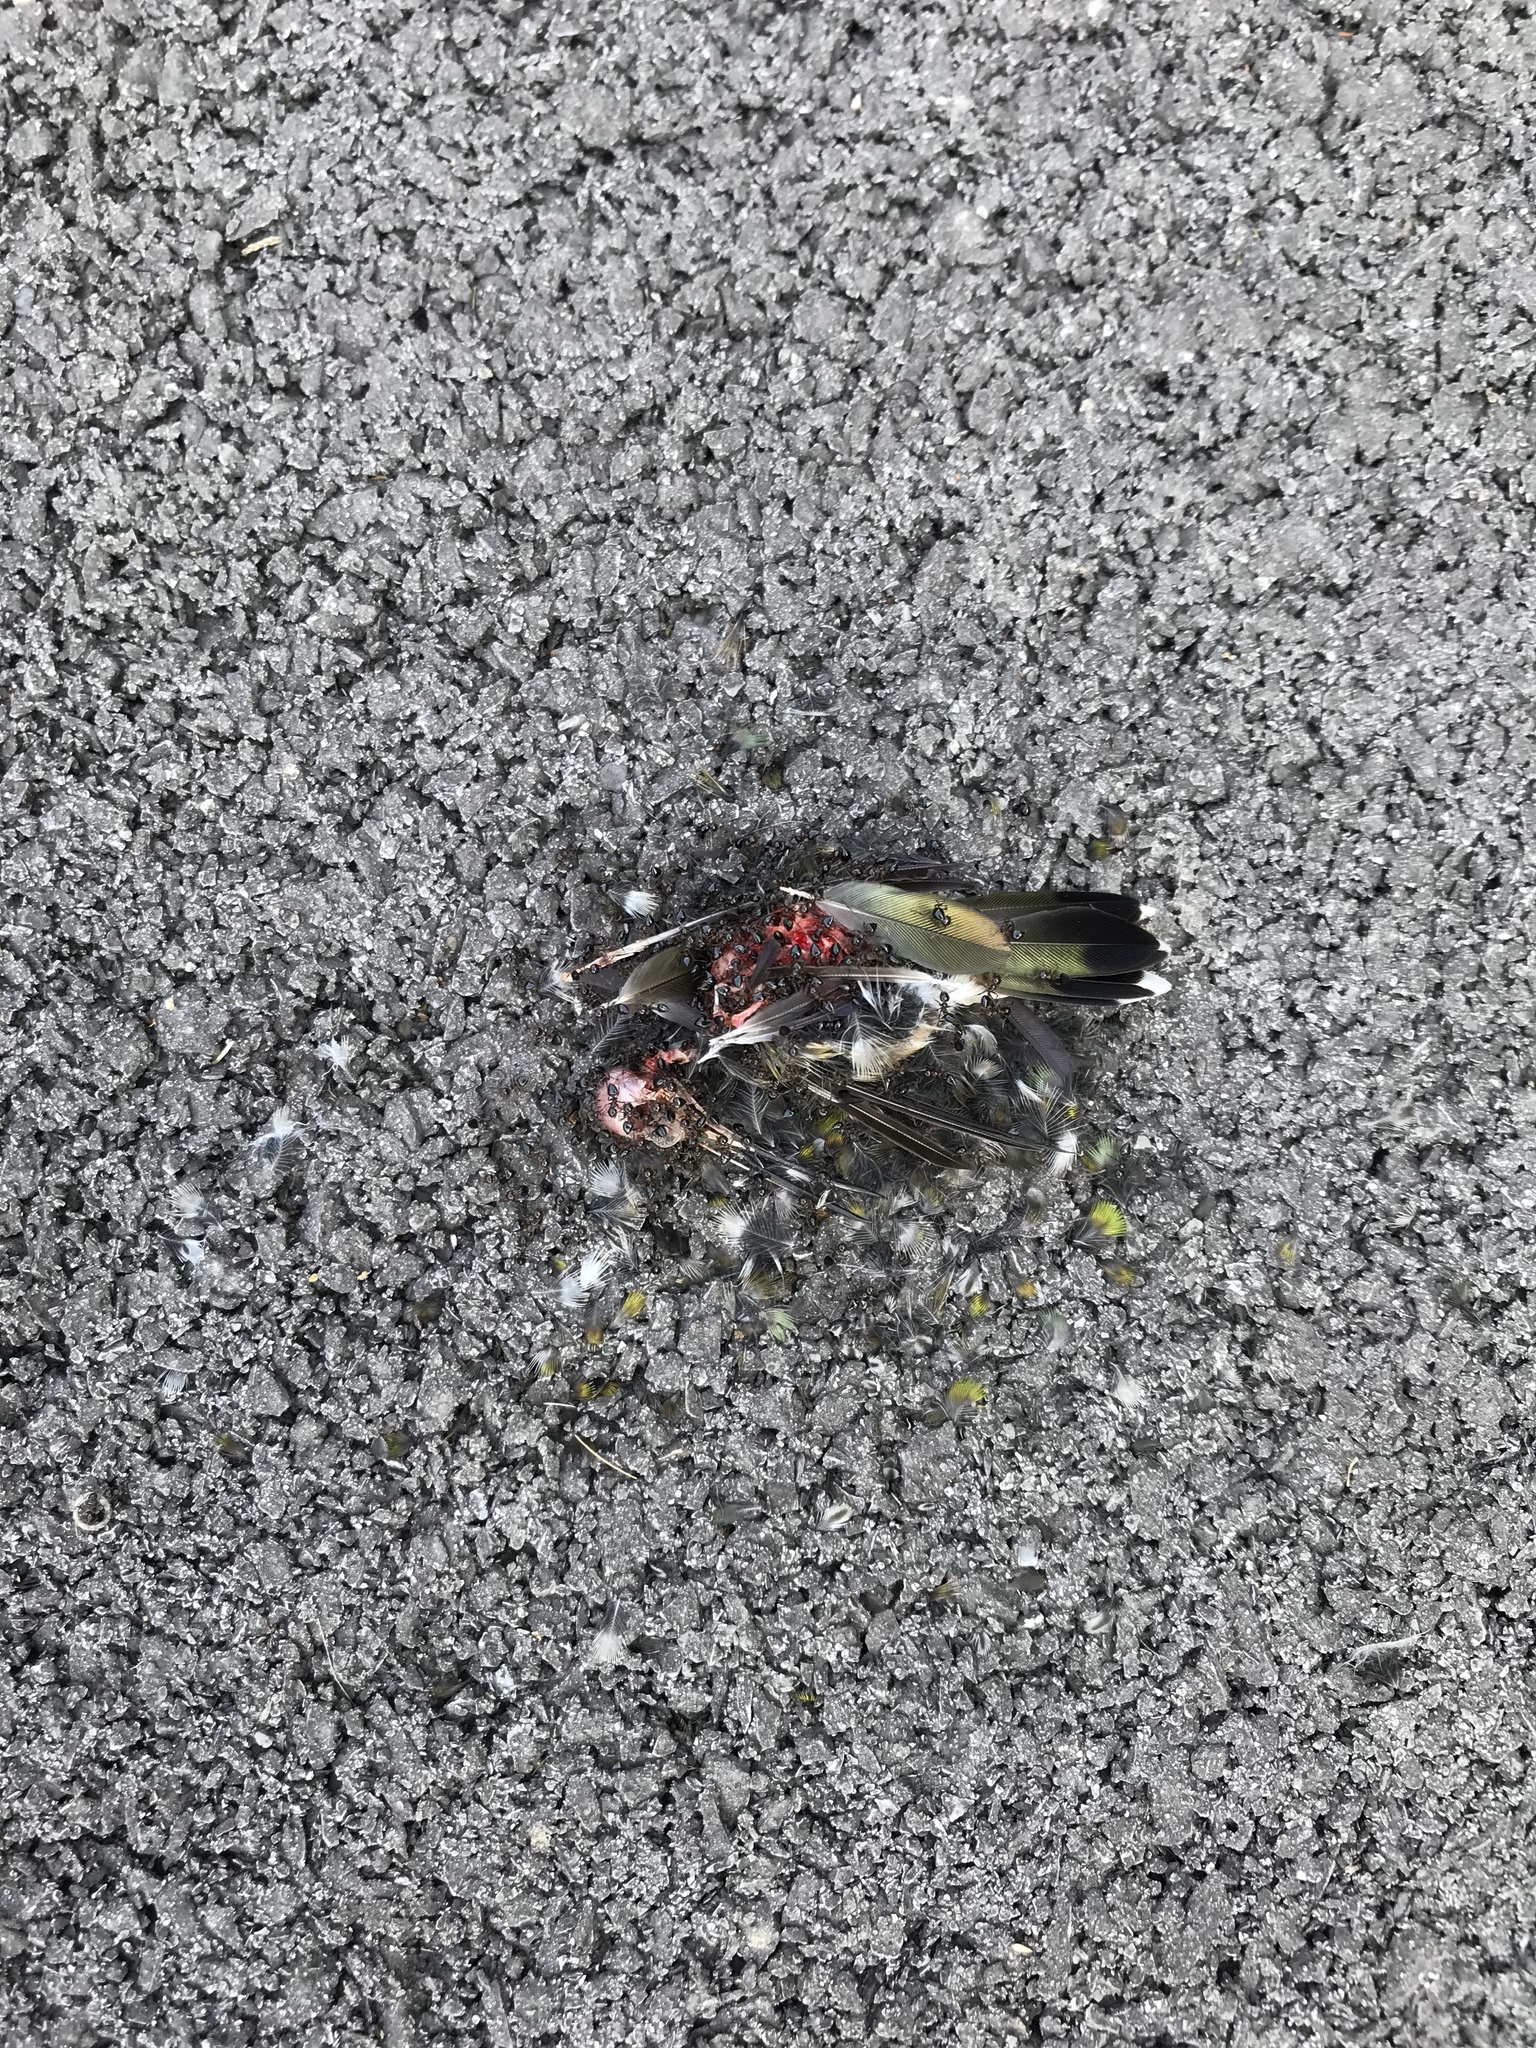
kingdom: Animalia
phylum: Chordata
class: Aves
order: Apodiformes
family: Trochilidae
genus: Archilochus
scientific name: Archilochus colubris
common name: Ruby-throated hummingbird
